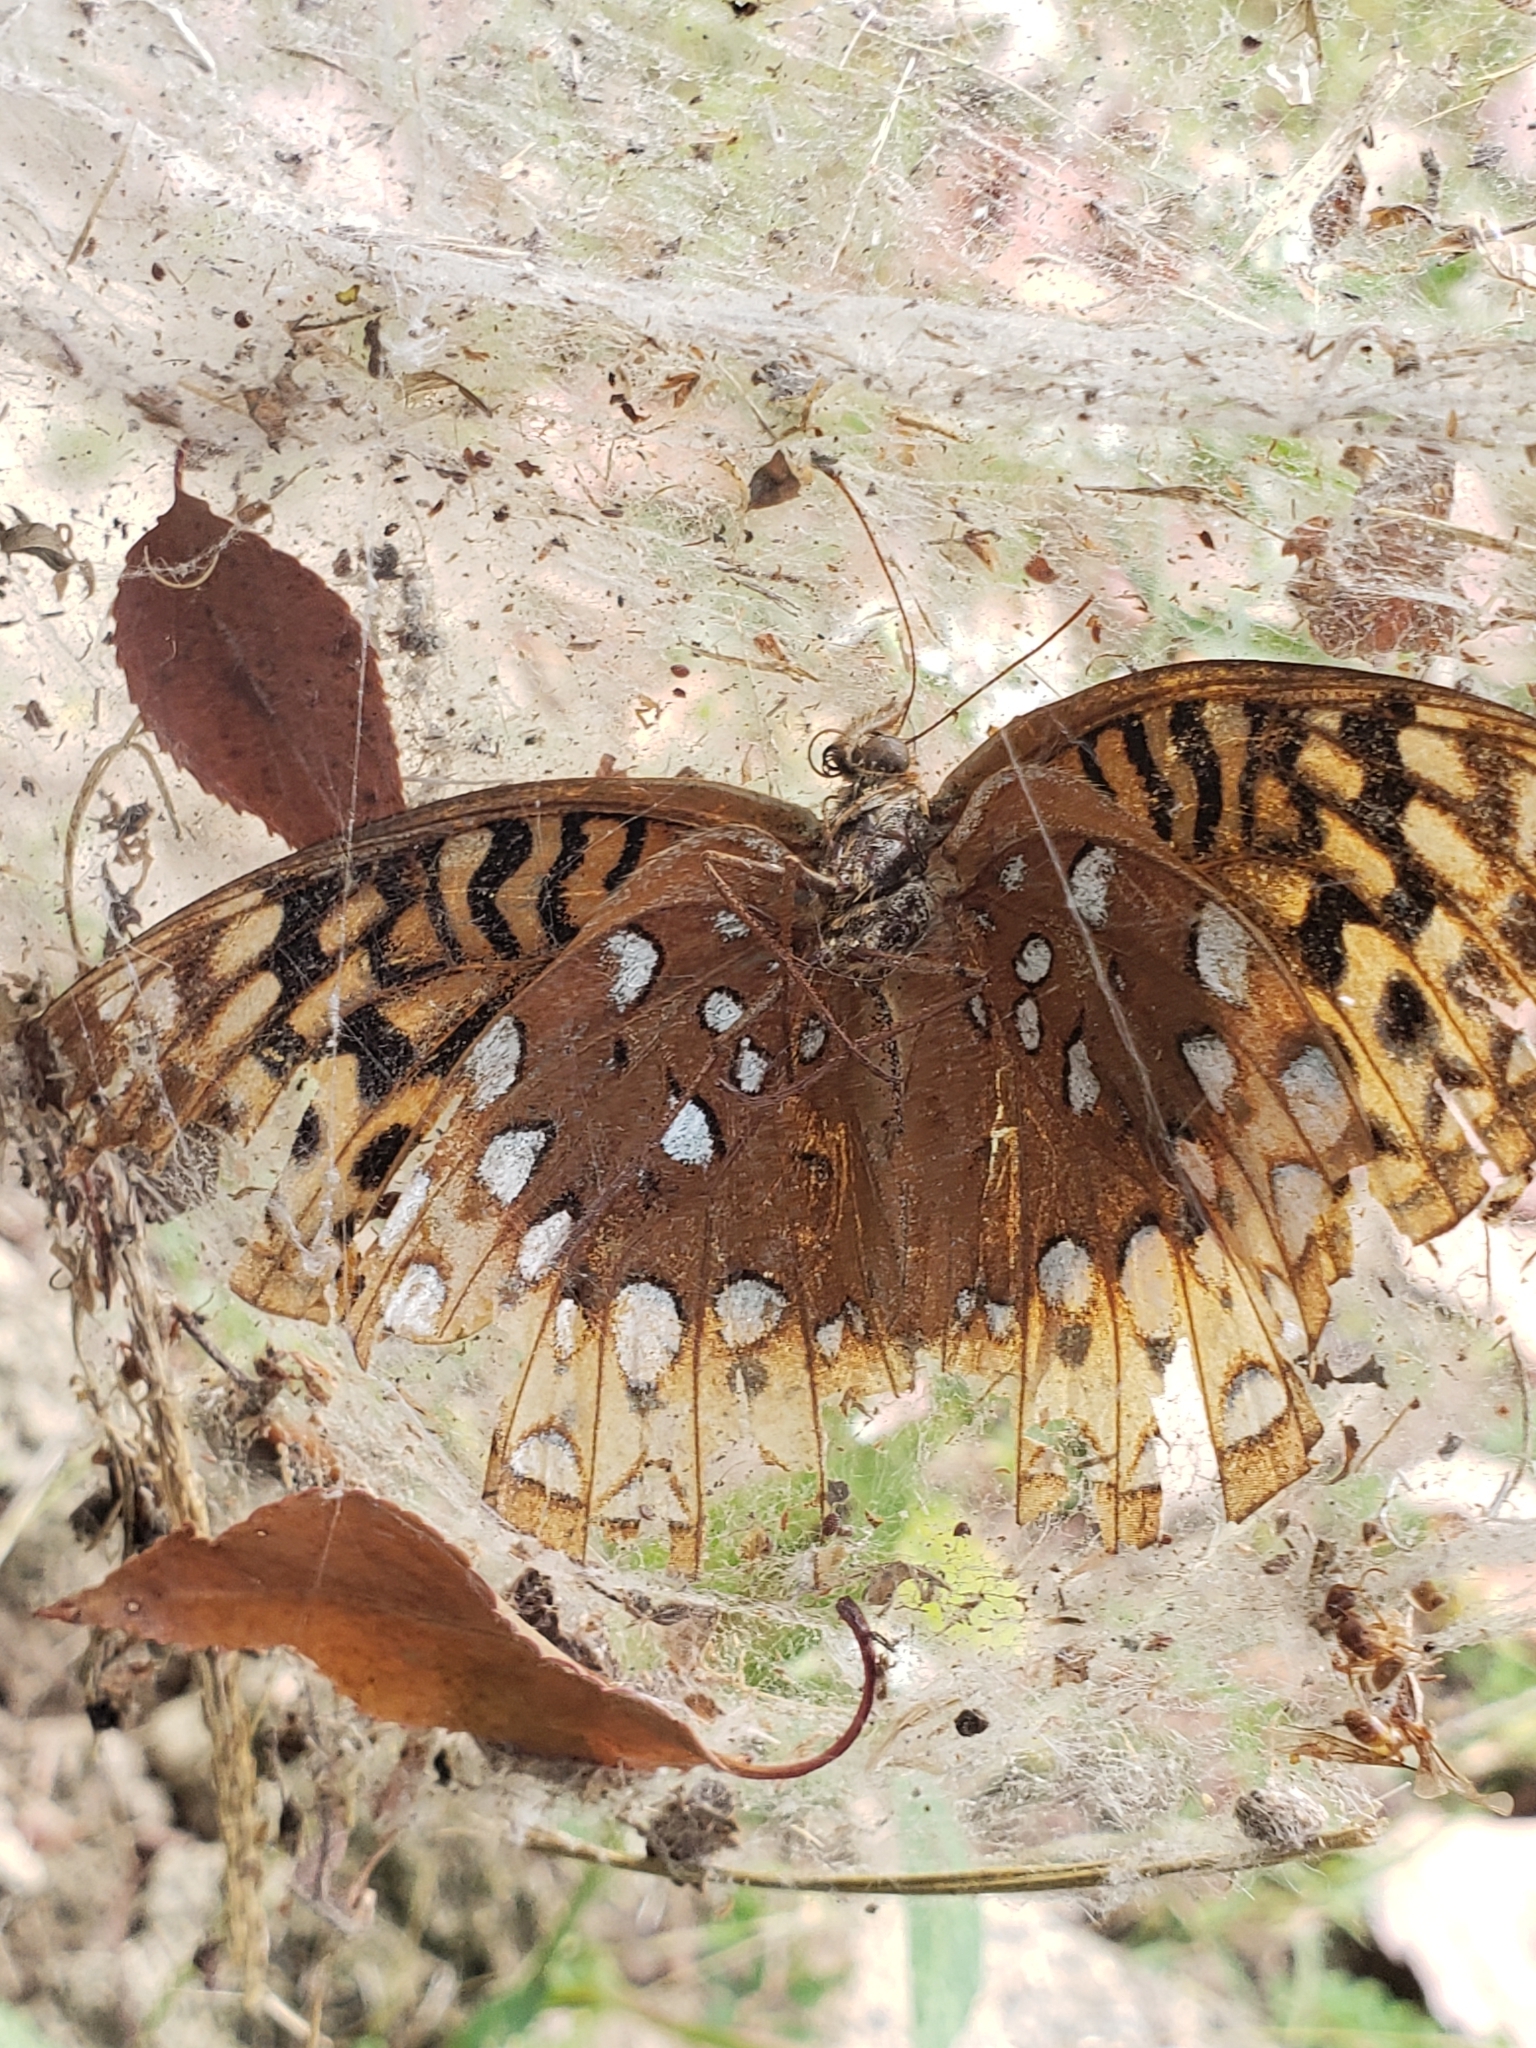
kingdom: Animalia
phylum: Arthropoda
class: Insecta
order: Lepidoptera
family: Nymphalidae
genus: Speyeria
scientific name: Speyeria cybele
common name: Great spangled fritillary
